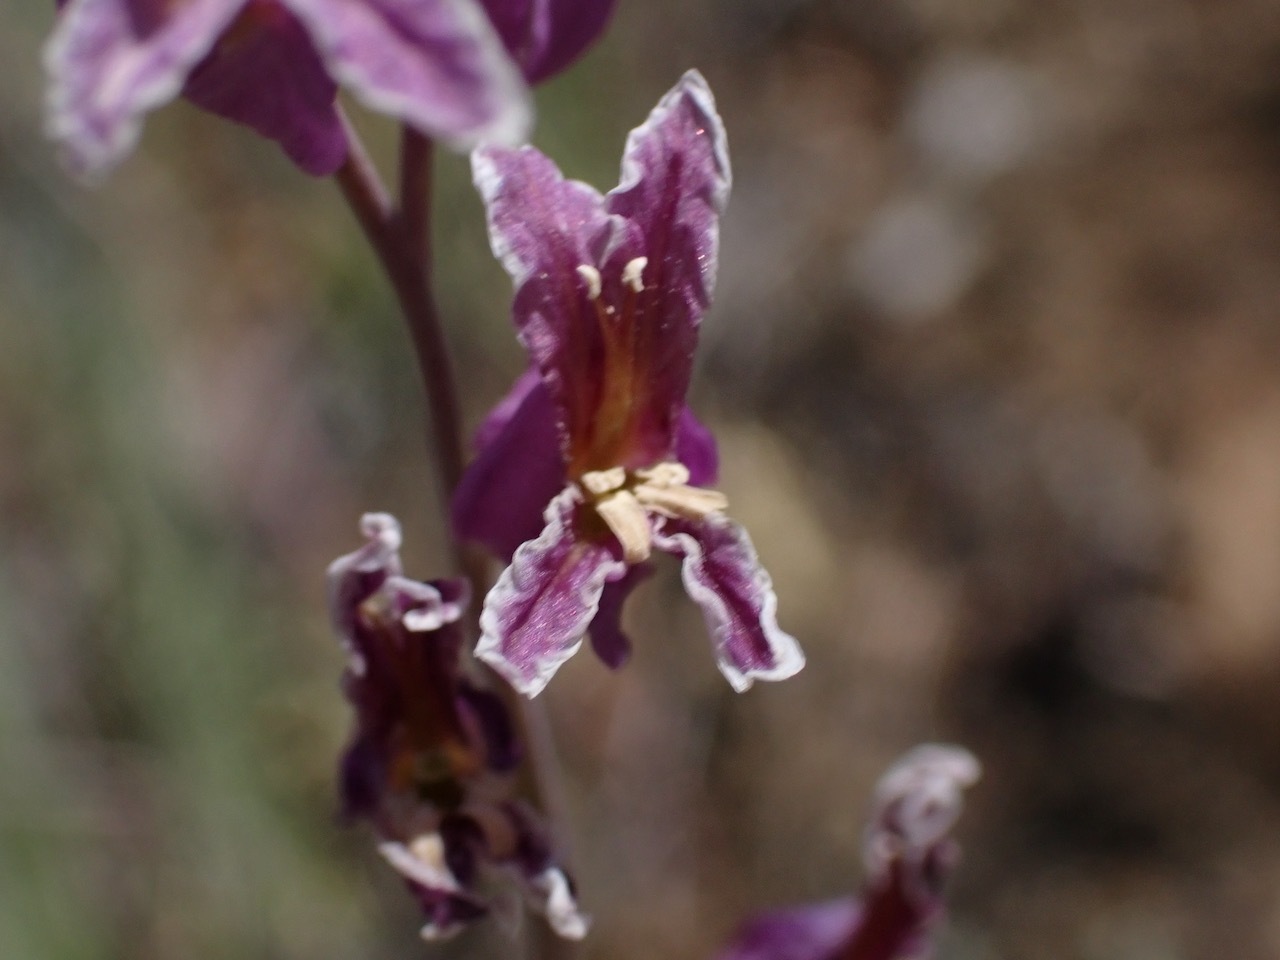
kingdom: Plantae
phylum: Tracheophyta
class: Magnoliopsida
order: Brassicales
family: Brassicaceae
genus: Streptanthus
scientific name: Streptanthus glandulosus
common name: Jewel-flower
